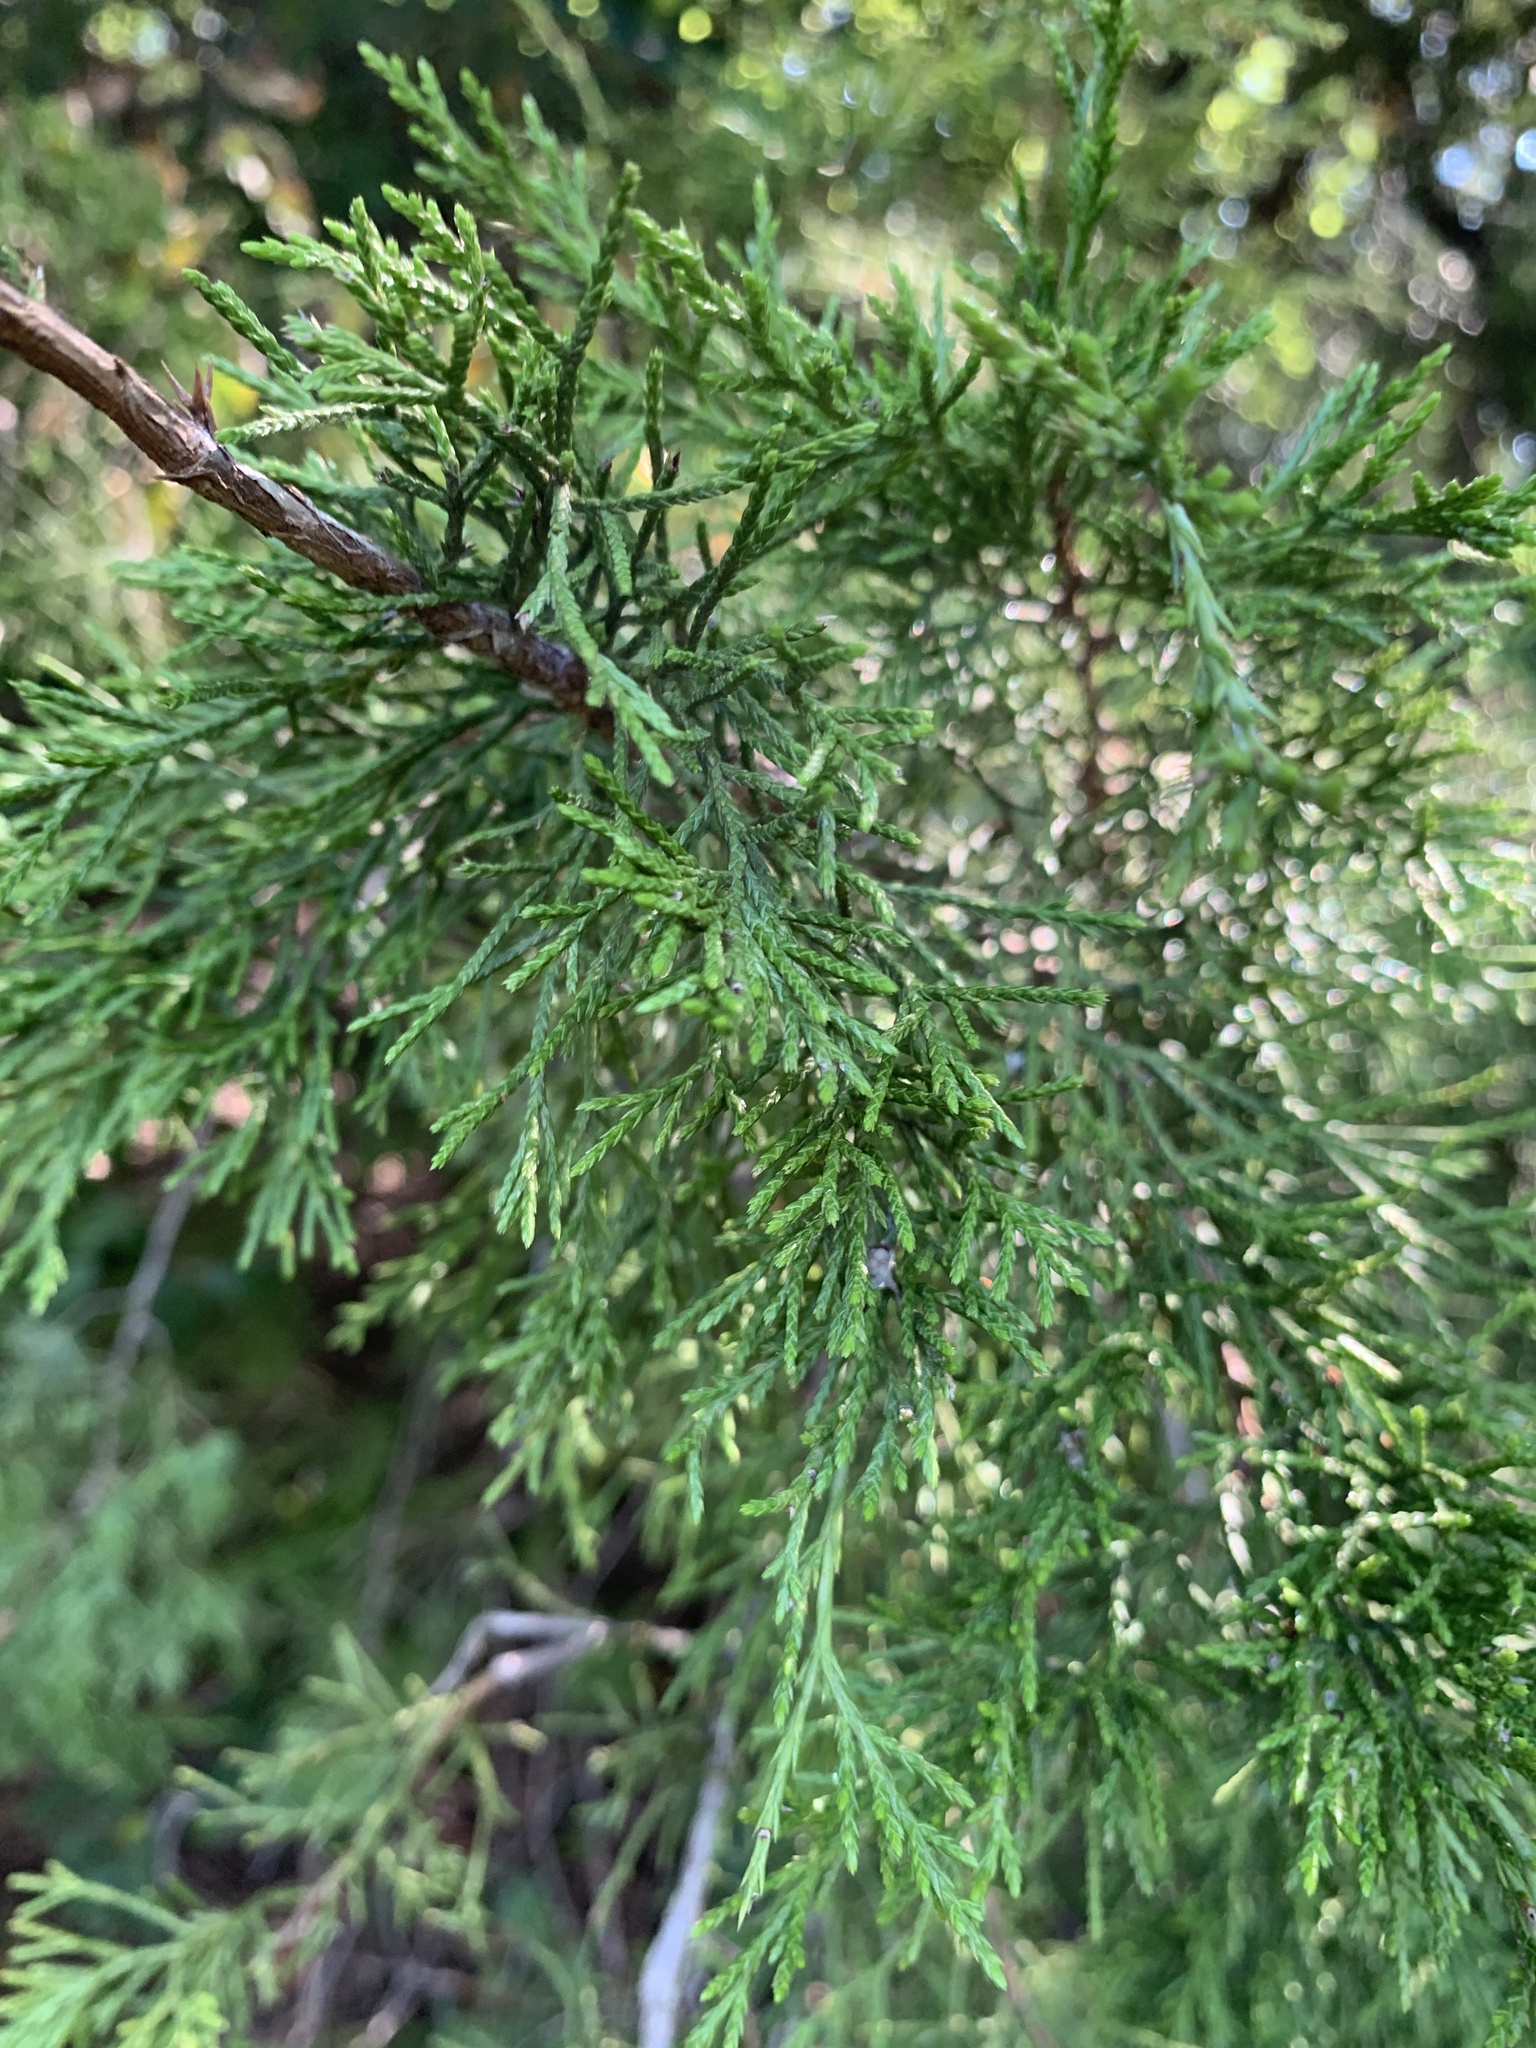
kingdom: Plantae
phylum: Tracheophyta
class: Pinopsida
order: Pinales
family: Cupressaceae
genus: Juniperus
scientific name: Juniperus virginiana
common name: Red juniper
